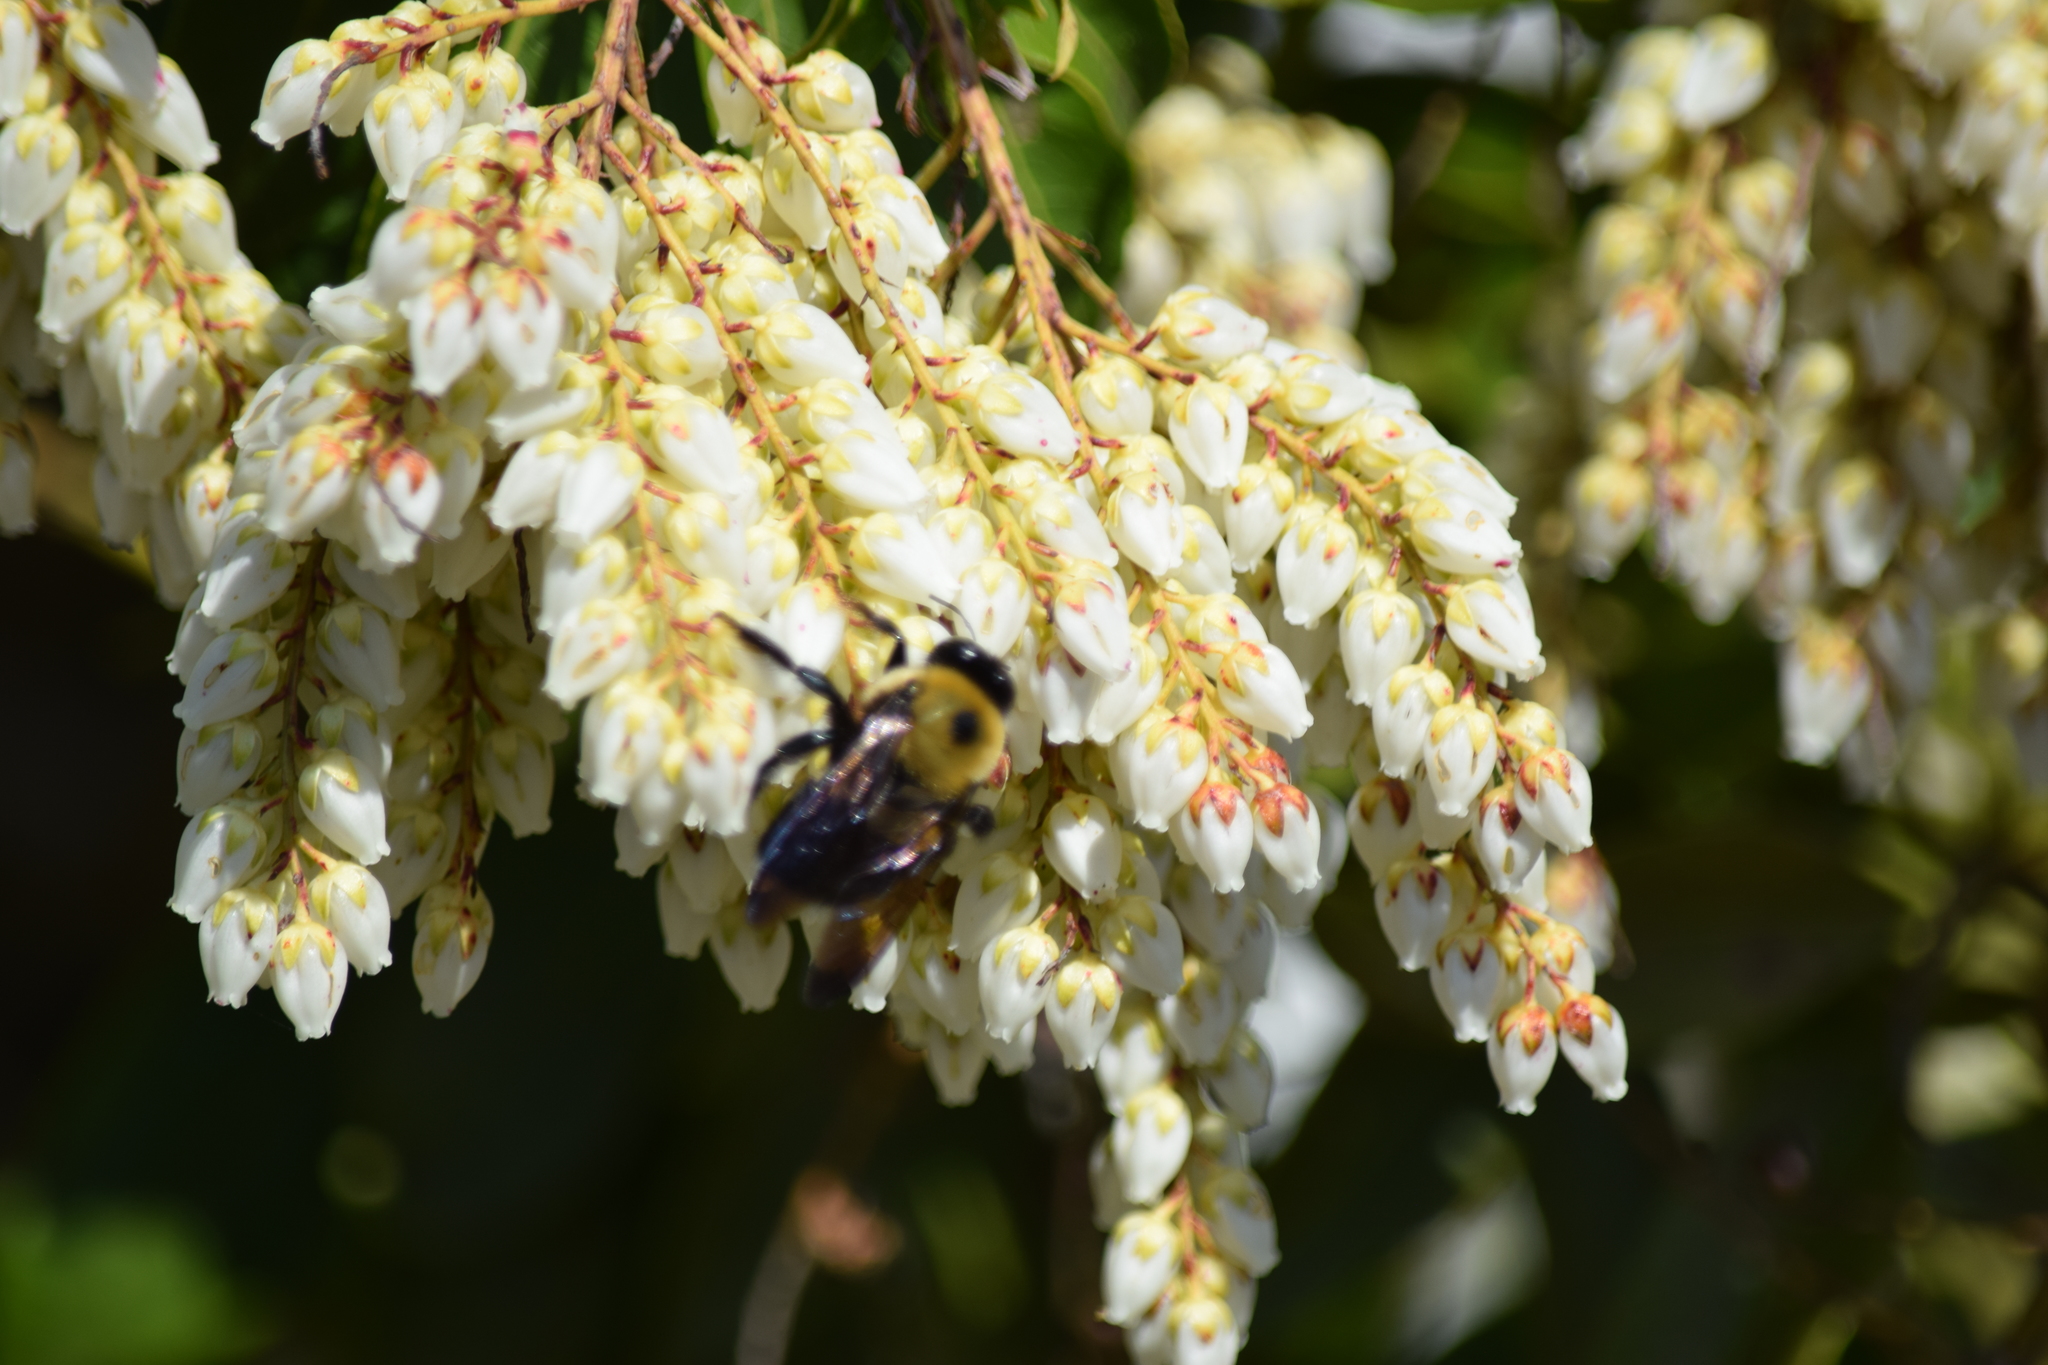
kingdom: Animalia
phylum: Arthropoda
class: Insecta
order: Hymenoptera
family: Apidae
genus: Xylocopa
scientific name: Xylocopa virginica
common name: Carpenter bee
